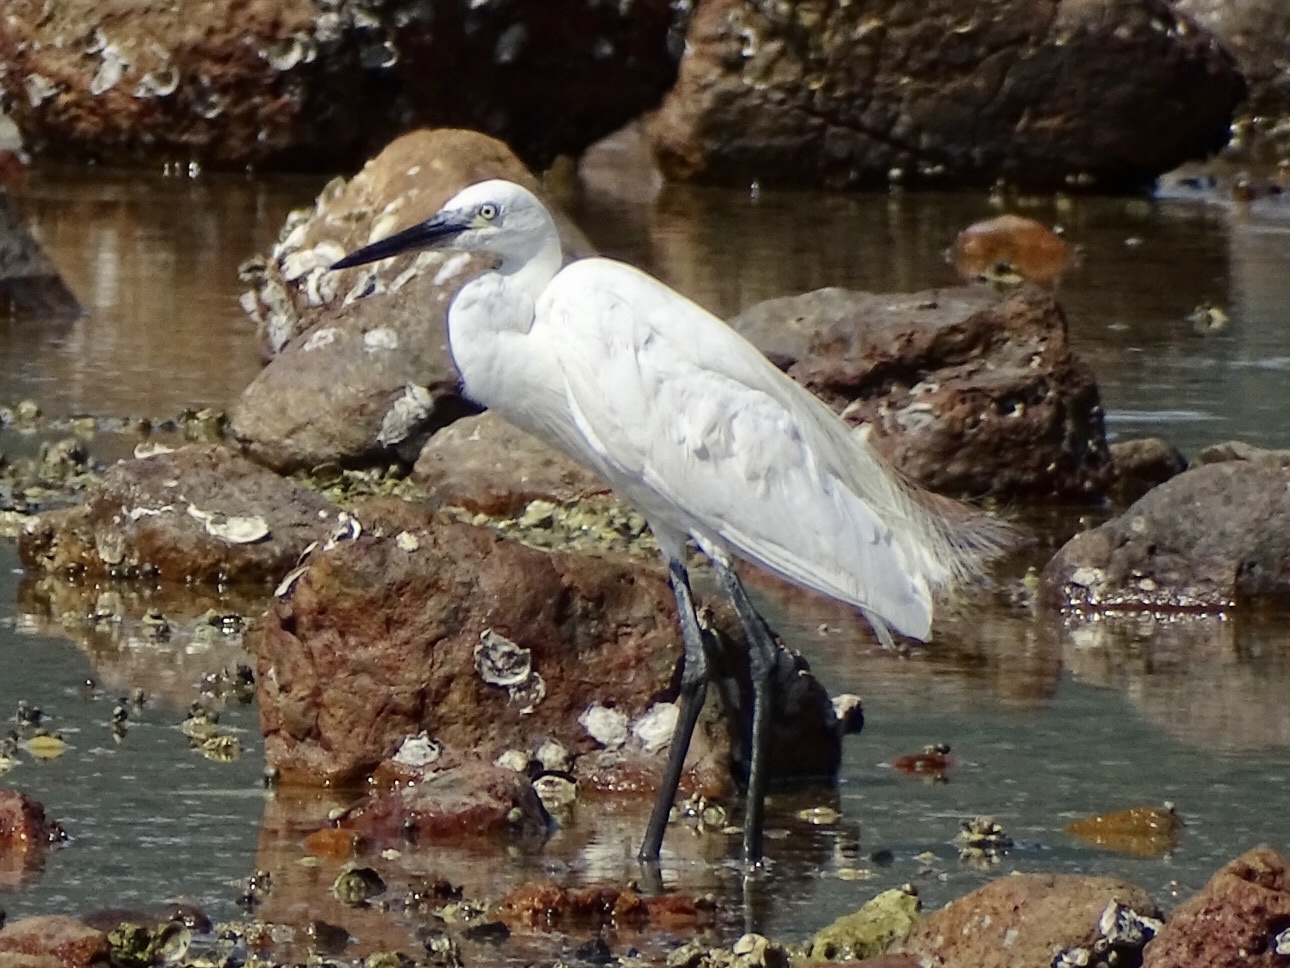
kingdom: Animalia
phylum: Chordata
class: Aves
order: Pelecaniformes
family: Ardeidae
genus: Egretta
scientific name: Egretta garzetta
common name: Little egret
